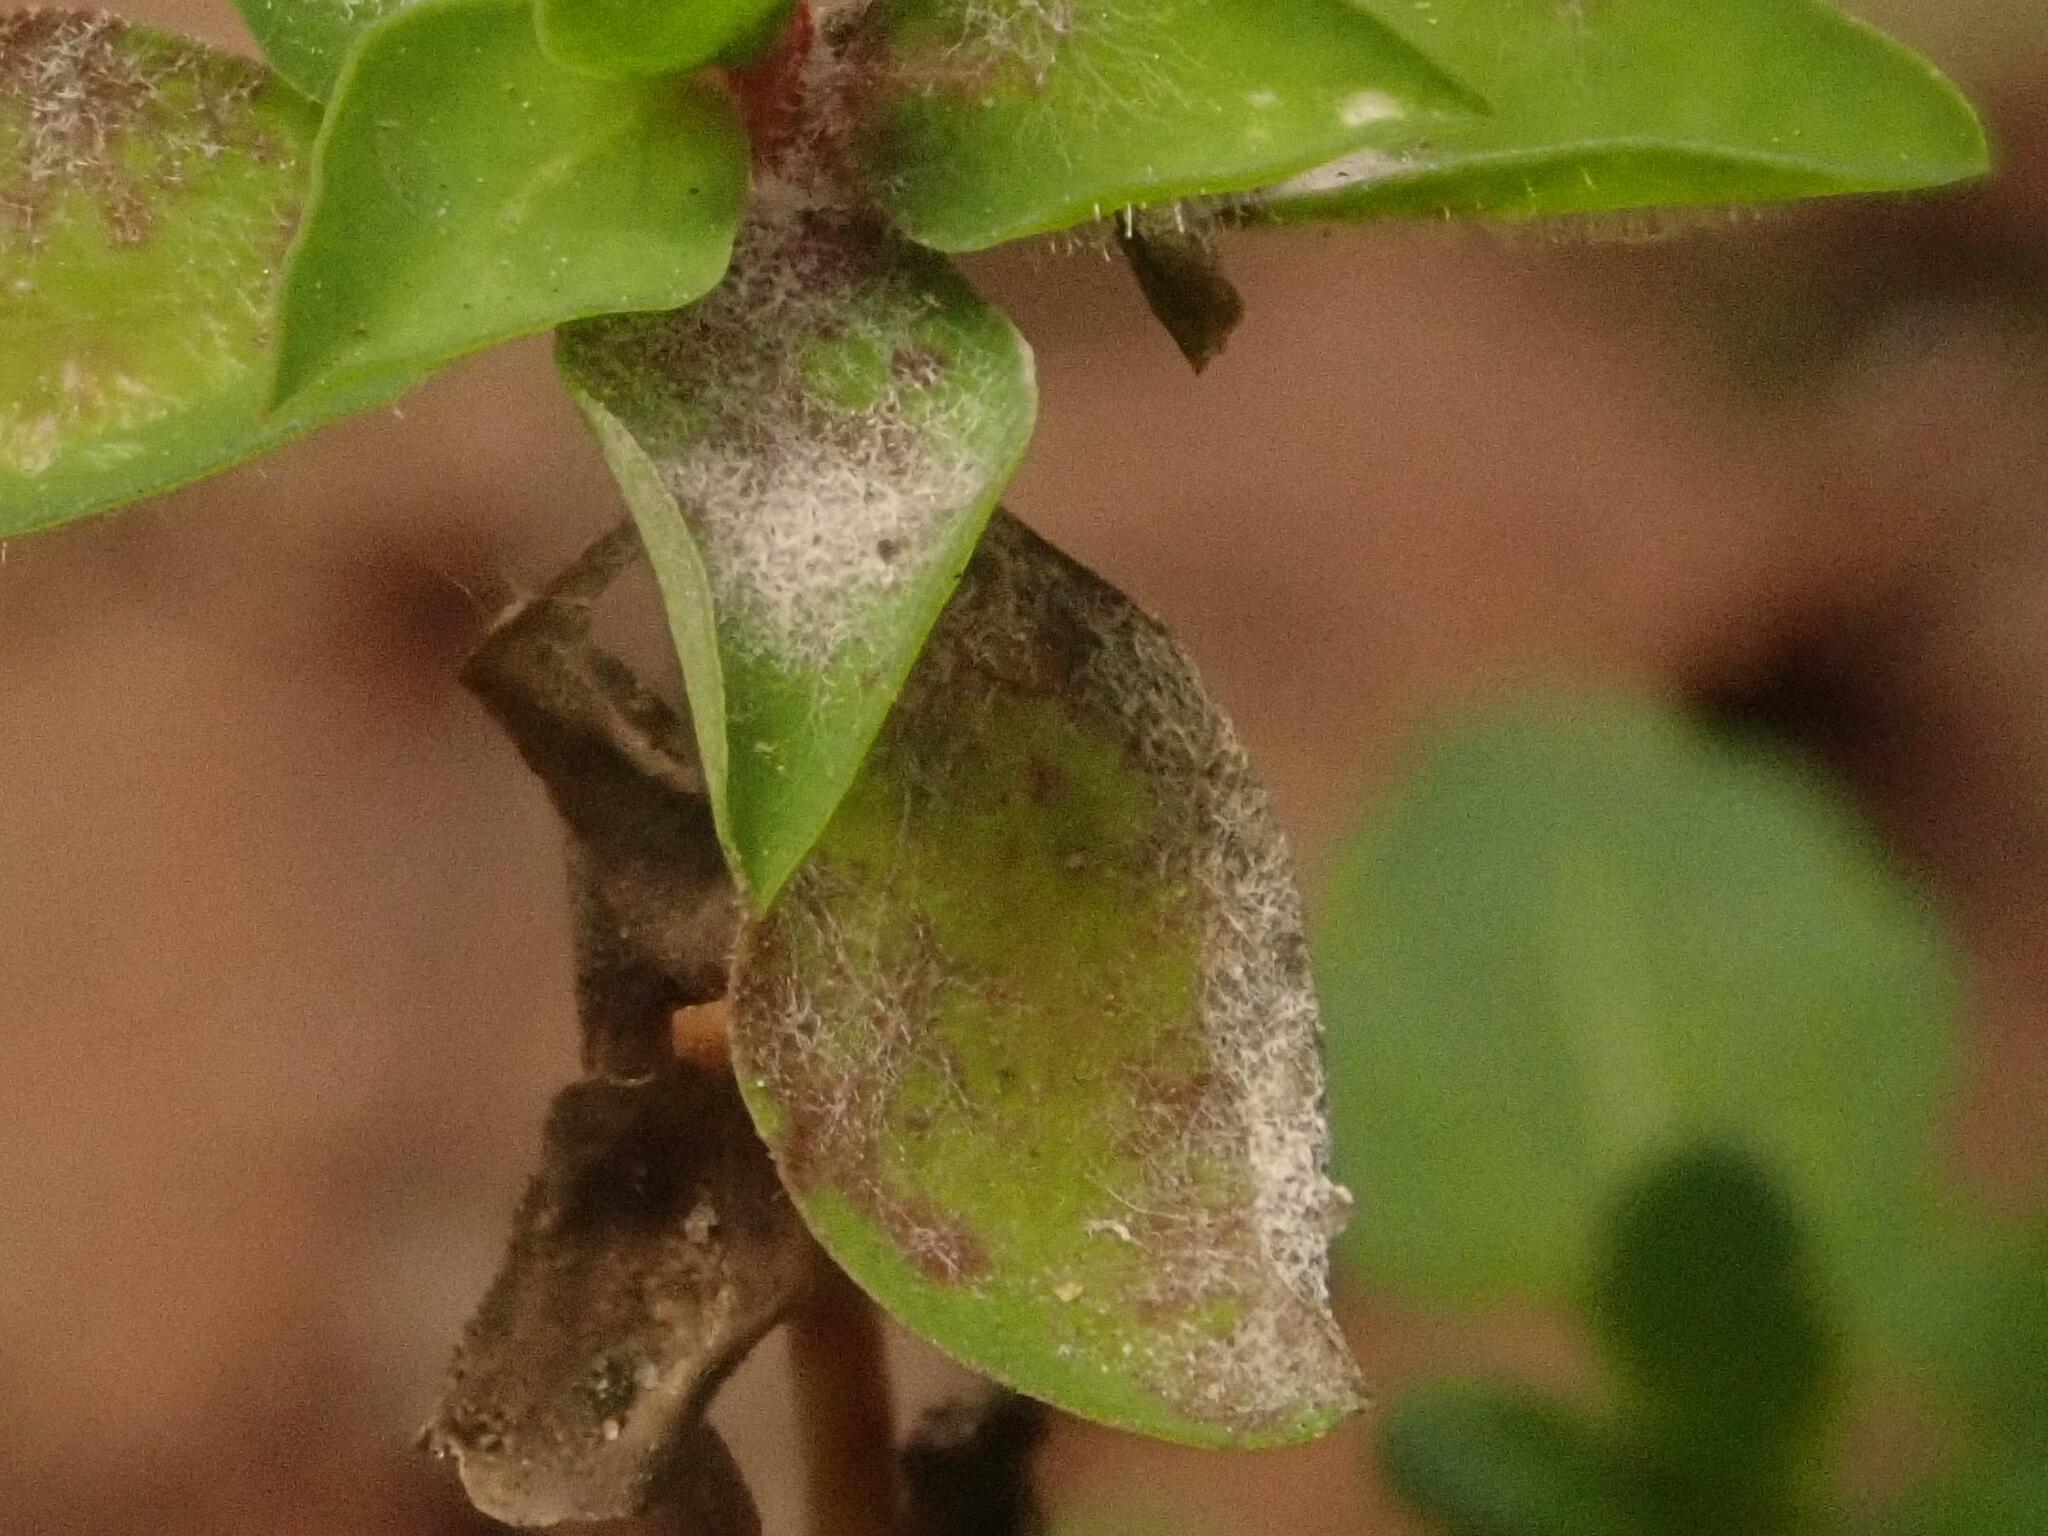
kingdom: Fungi
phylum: Ascomycota
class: Leotiomycetes
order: Helotiales
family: Erysiphaceae
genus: Podosphaera
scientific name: Podosphaera euphorbiae
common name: Eurasian poinsettia powdery mildew
